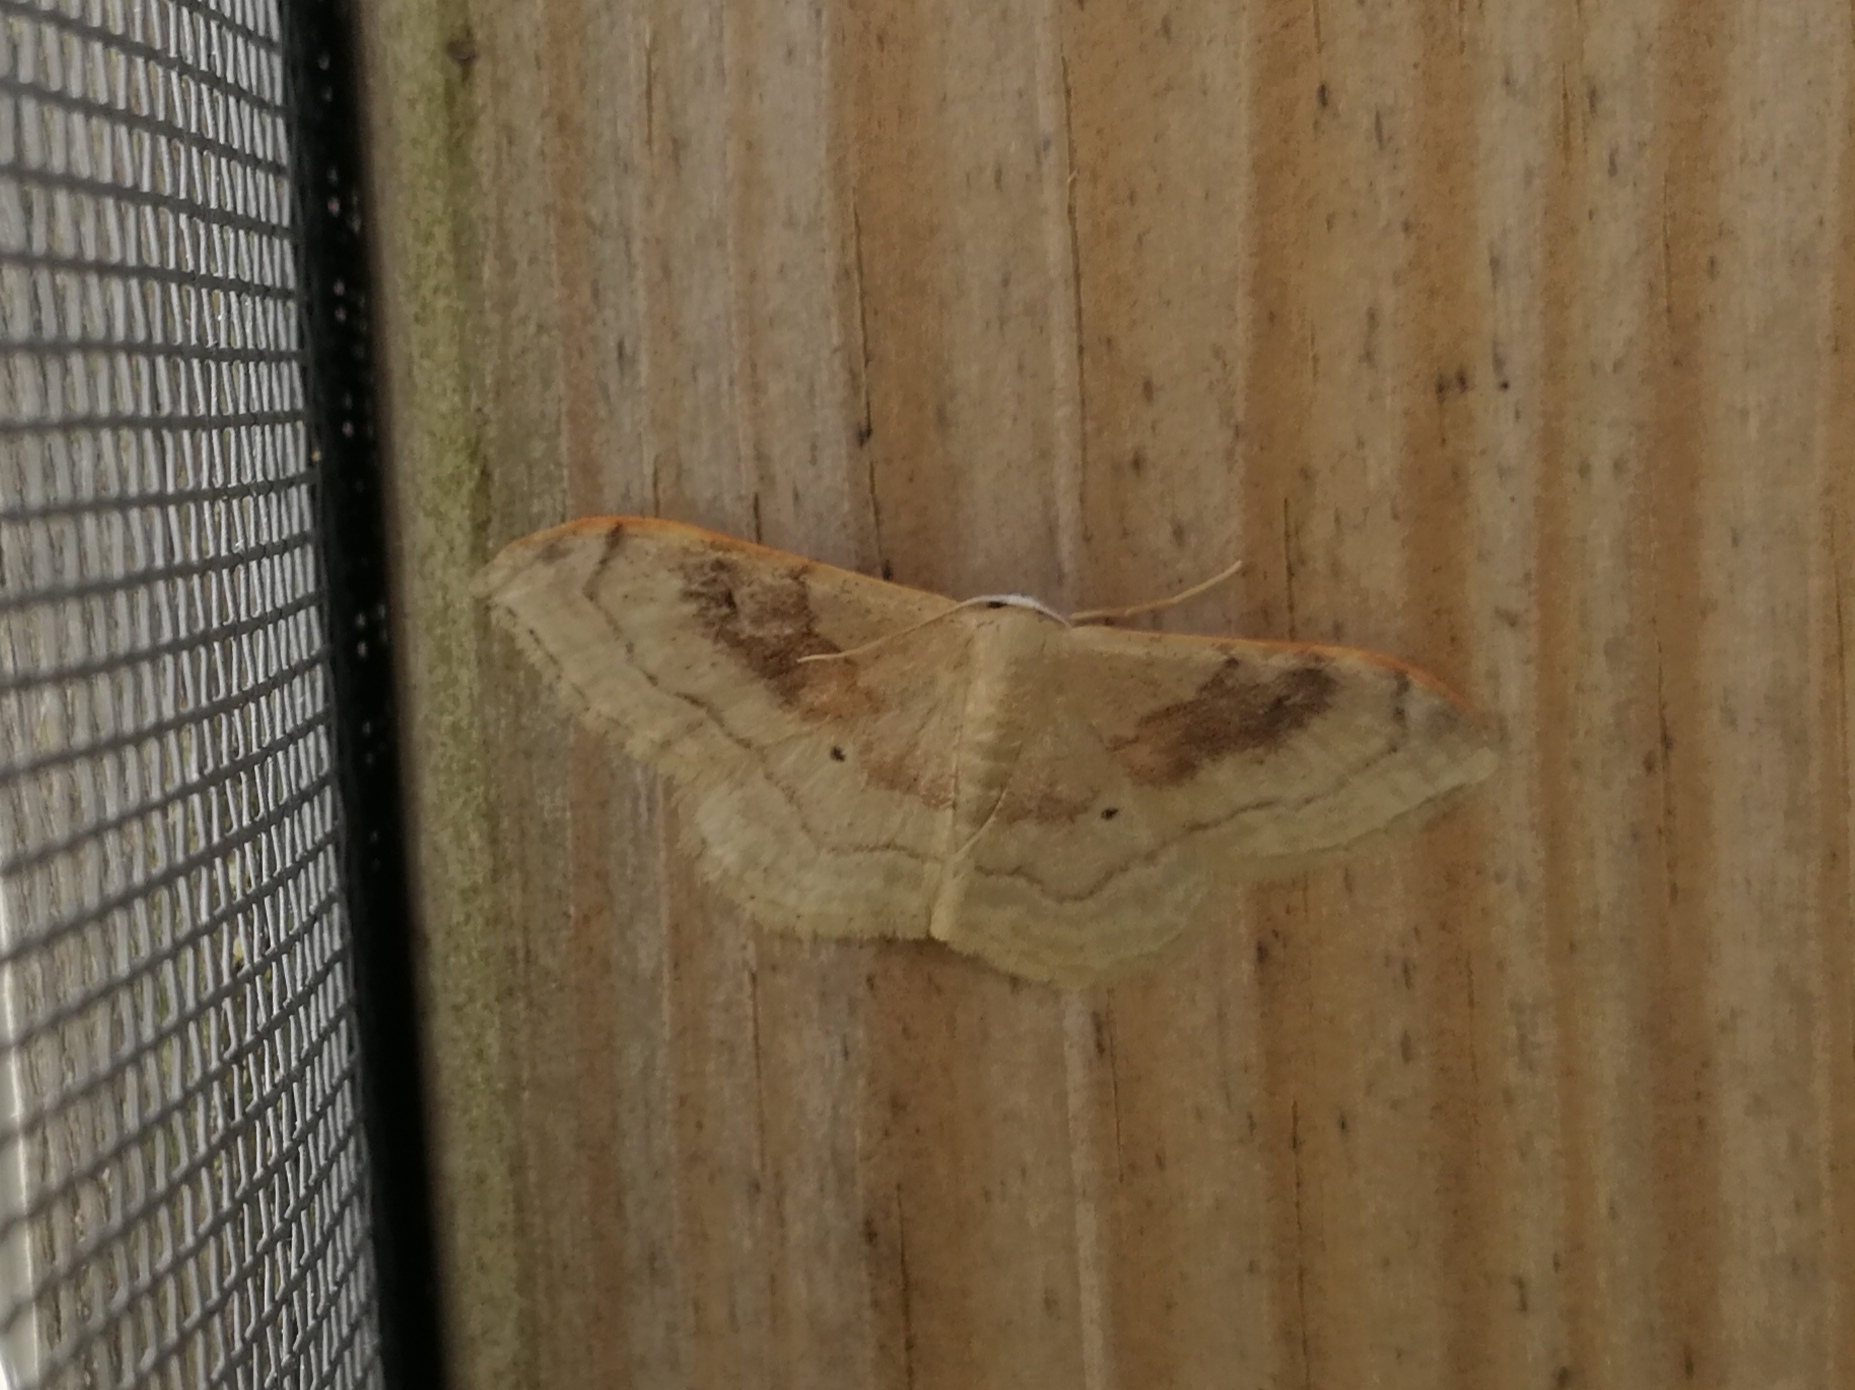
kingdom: Animalia
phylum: Arthropoda
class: Insecta
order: Lepidoptera
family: Geometridae
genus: Idaea
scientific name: Idaea degeneraria
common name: Portland ribbon wave
